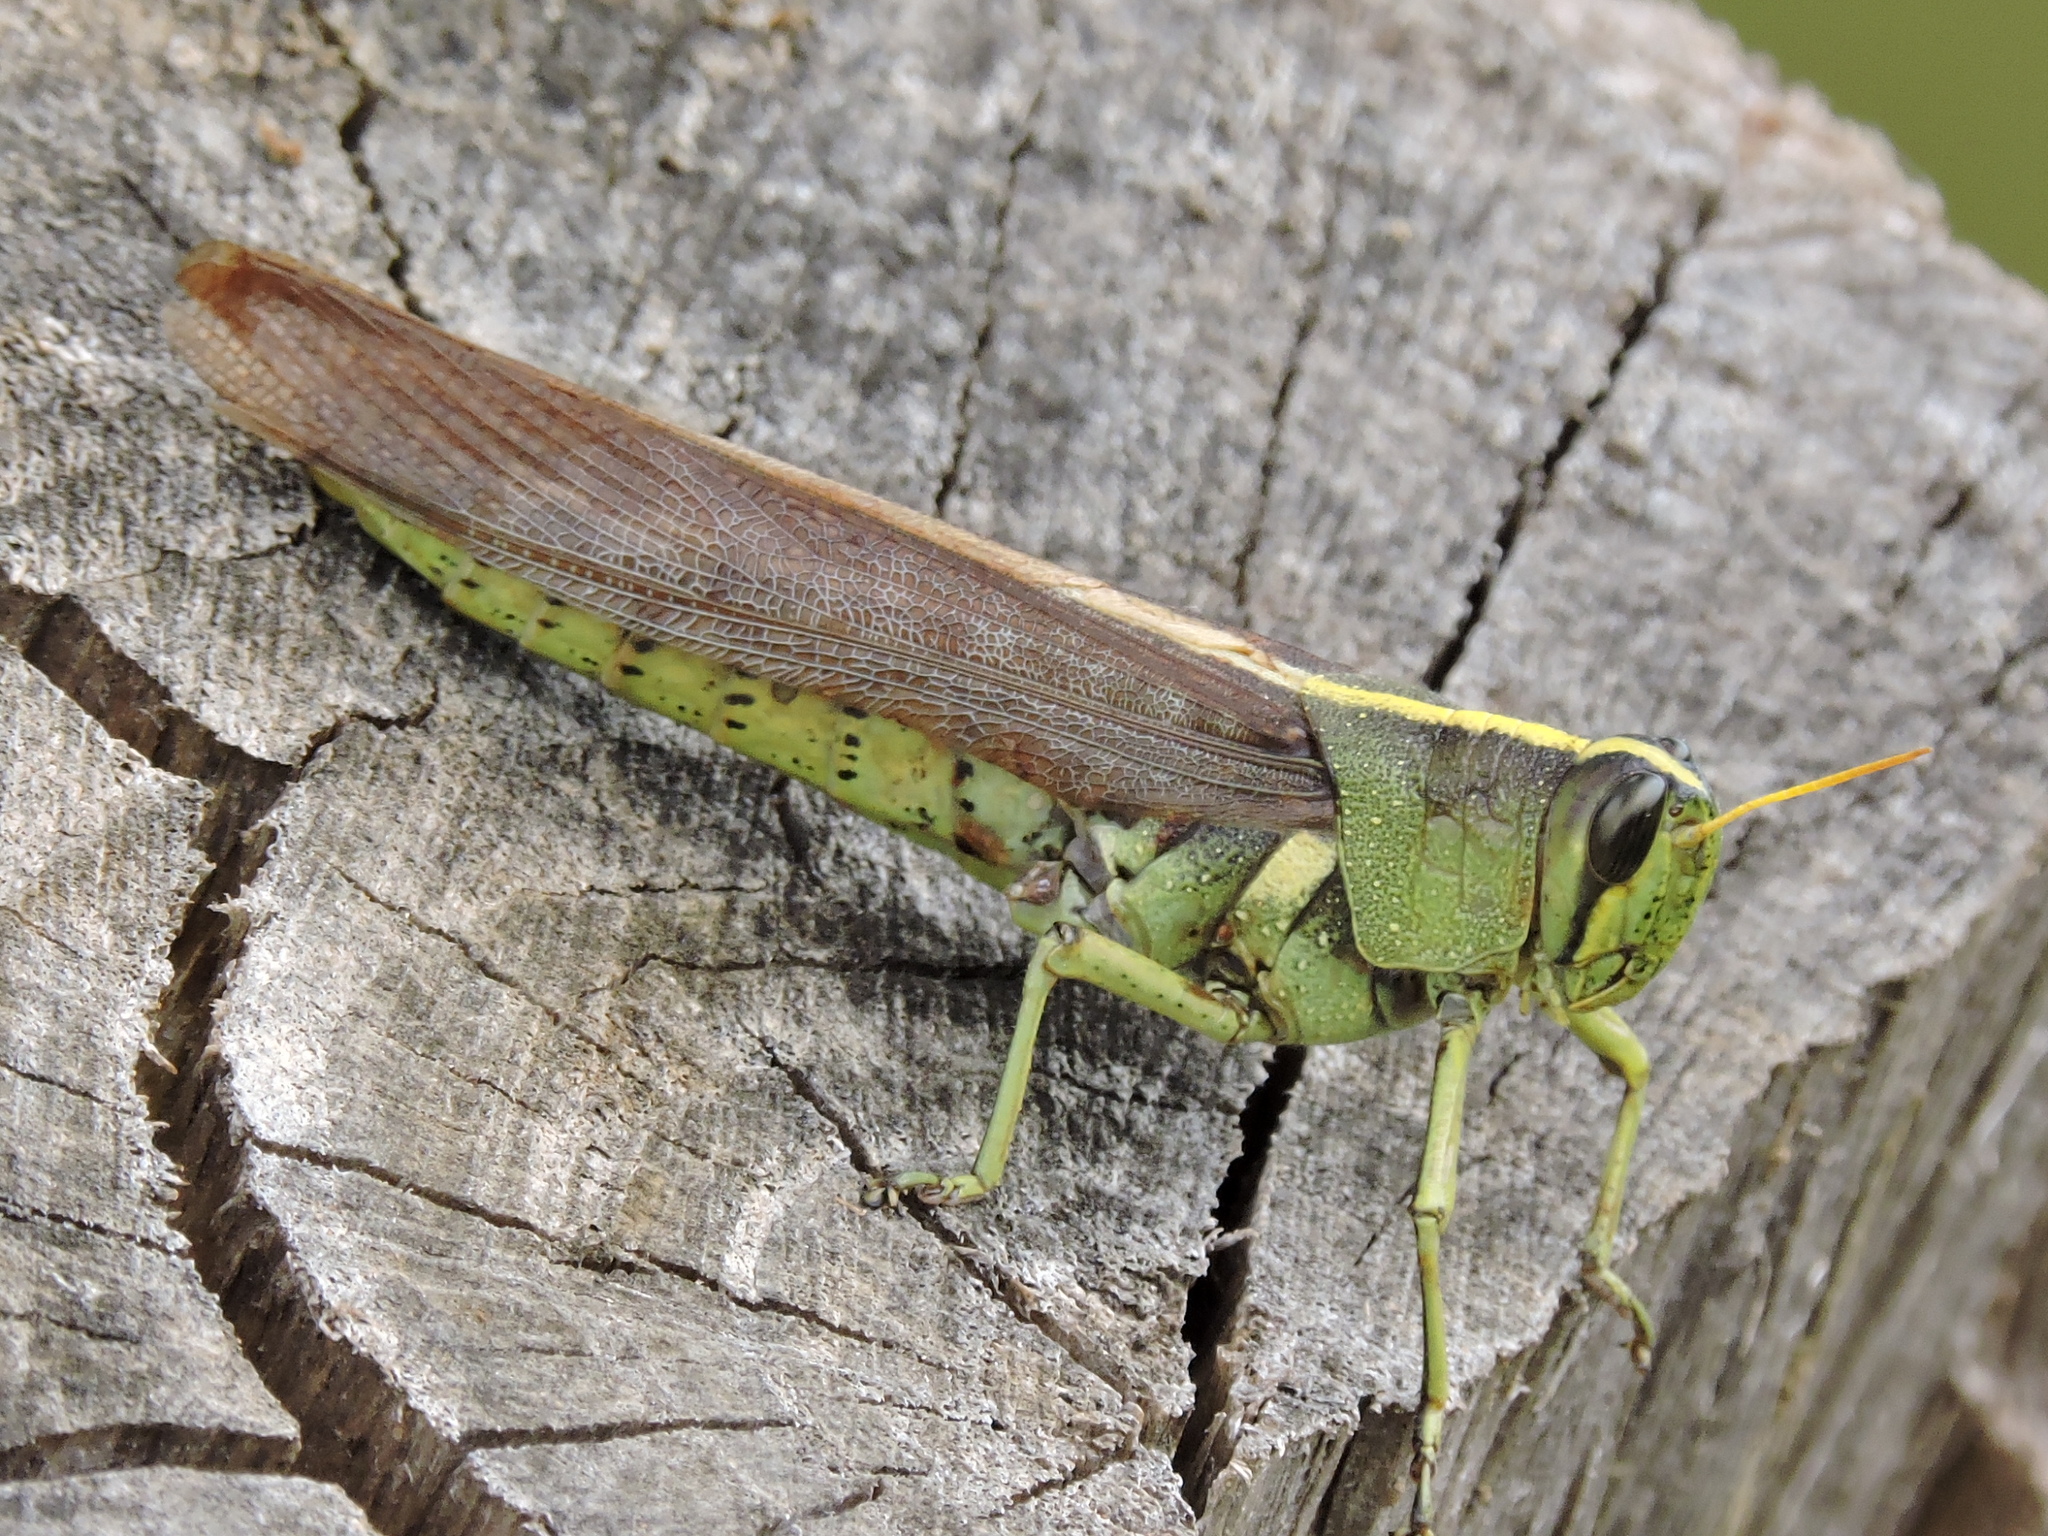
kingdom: Animalia
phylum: Arthropoda
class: Insecta
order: Orthoptera
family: Acrididae
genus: Schistocerca
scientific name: Schistocerca obscura
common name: Obscure bird grasshopper
